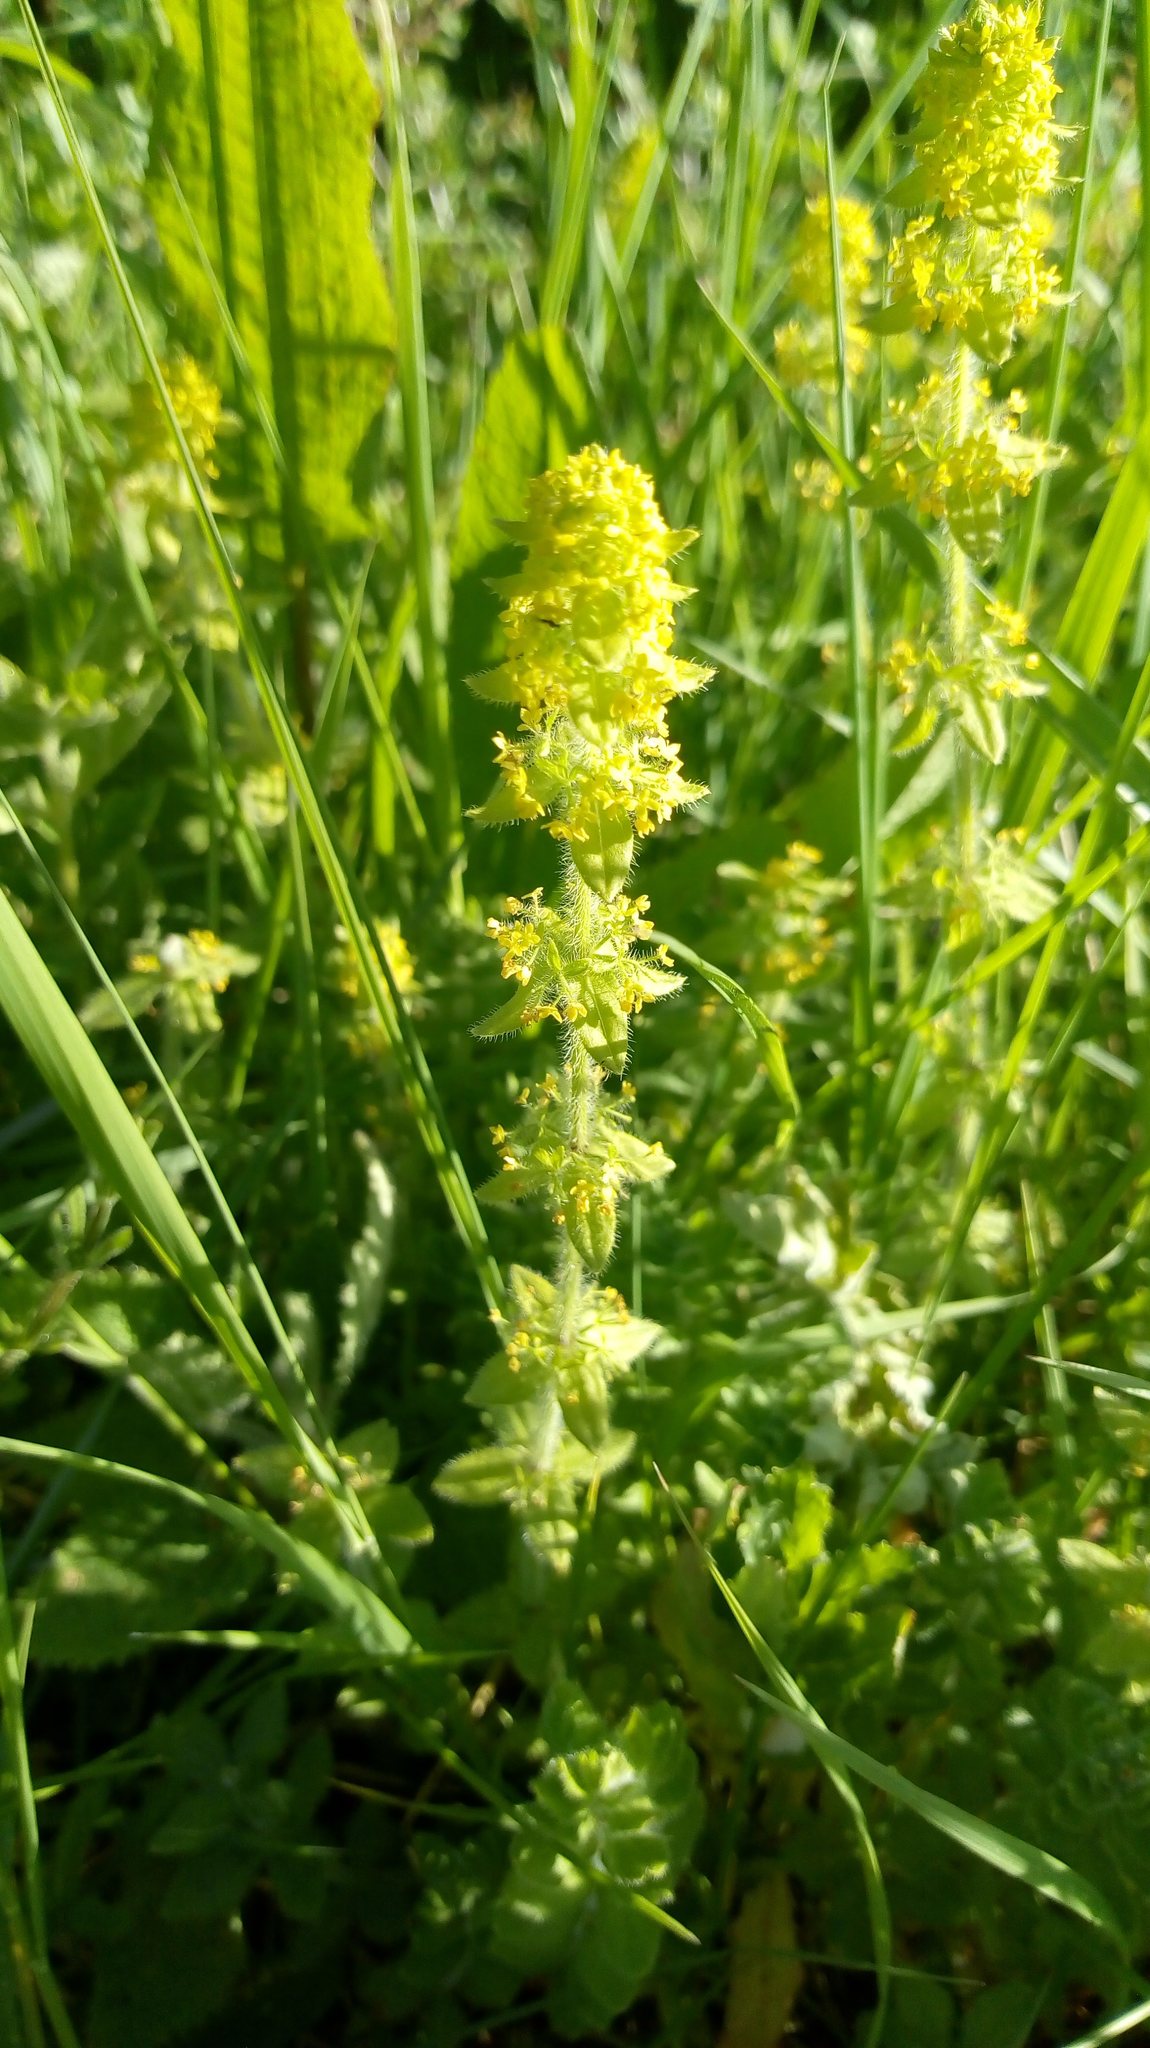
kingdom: Plantae
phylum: Tracheophyta
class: Magnoliopsida
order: Gentianales
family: Rubiaceae
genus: Cruciata
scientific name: Cruciata laevipes
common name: Crosswort
